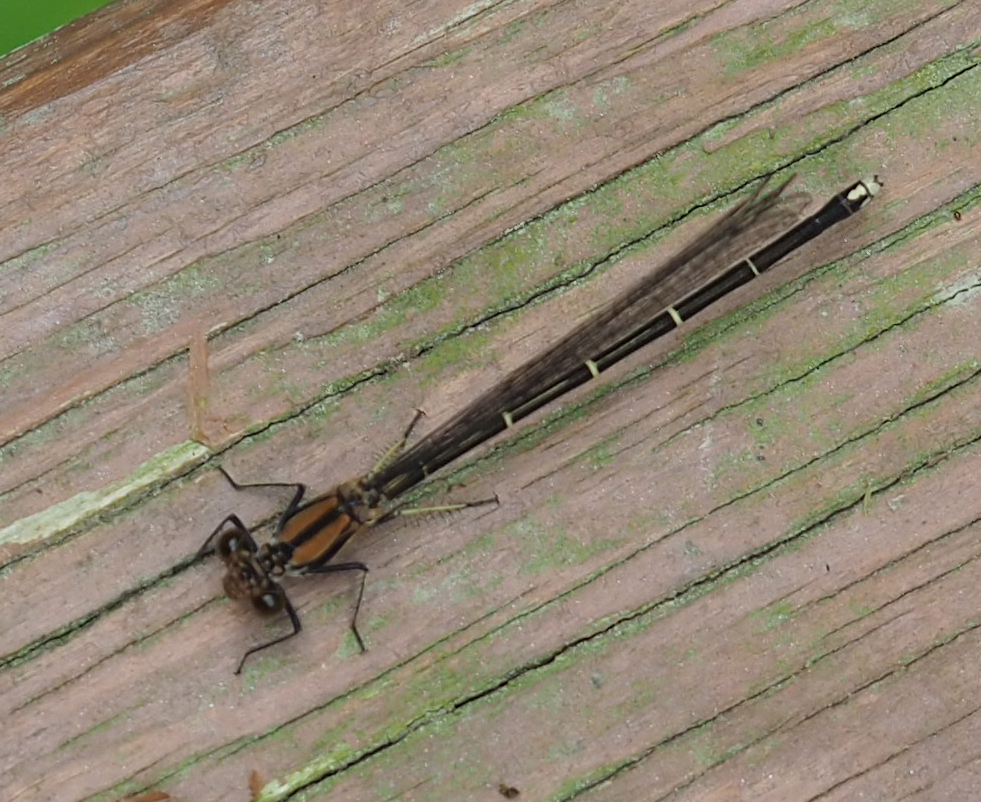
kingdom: Animalia
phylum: Arthropoda
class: Insecta
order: Odonata
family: Coenagrionidae
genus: Argia
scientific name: Argia tibialis
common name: Blue-tipped dancer
